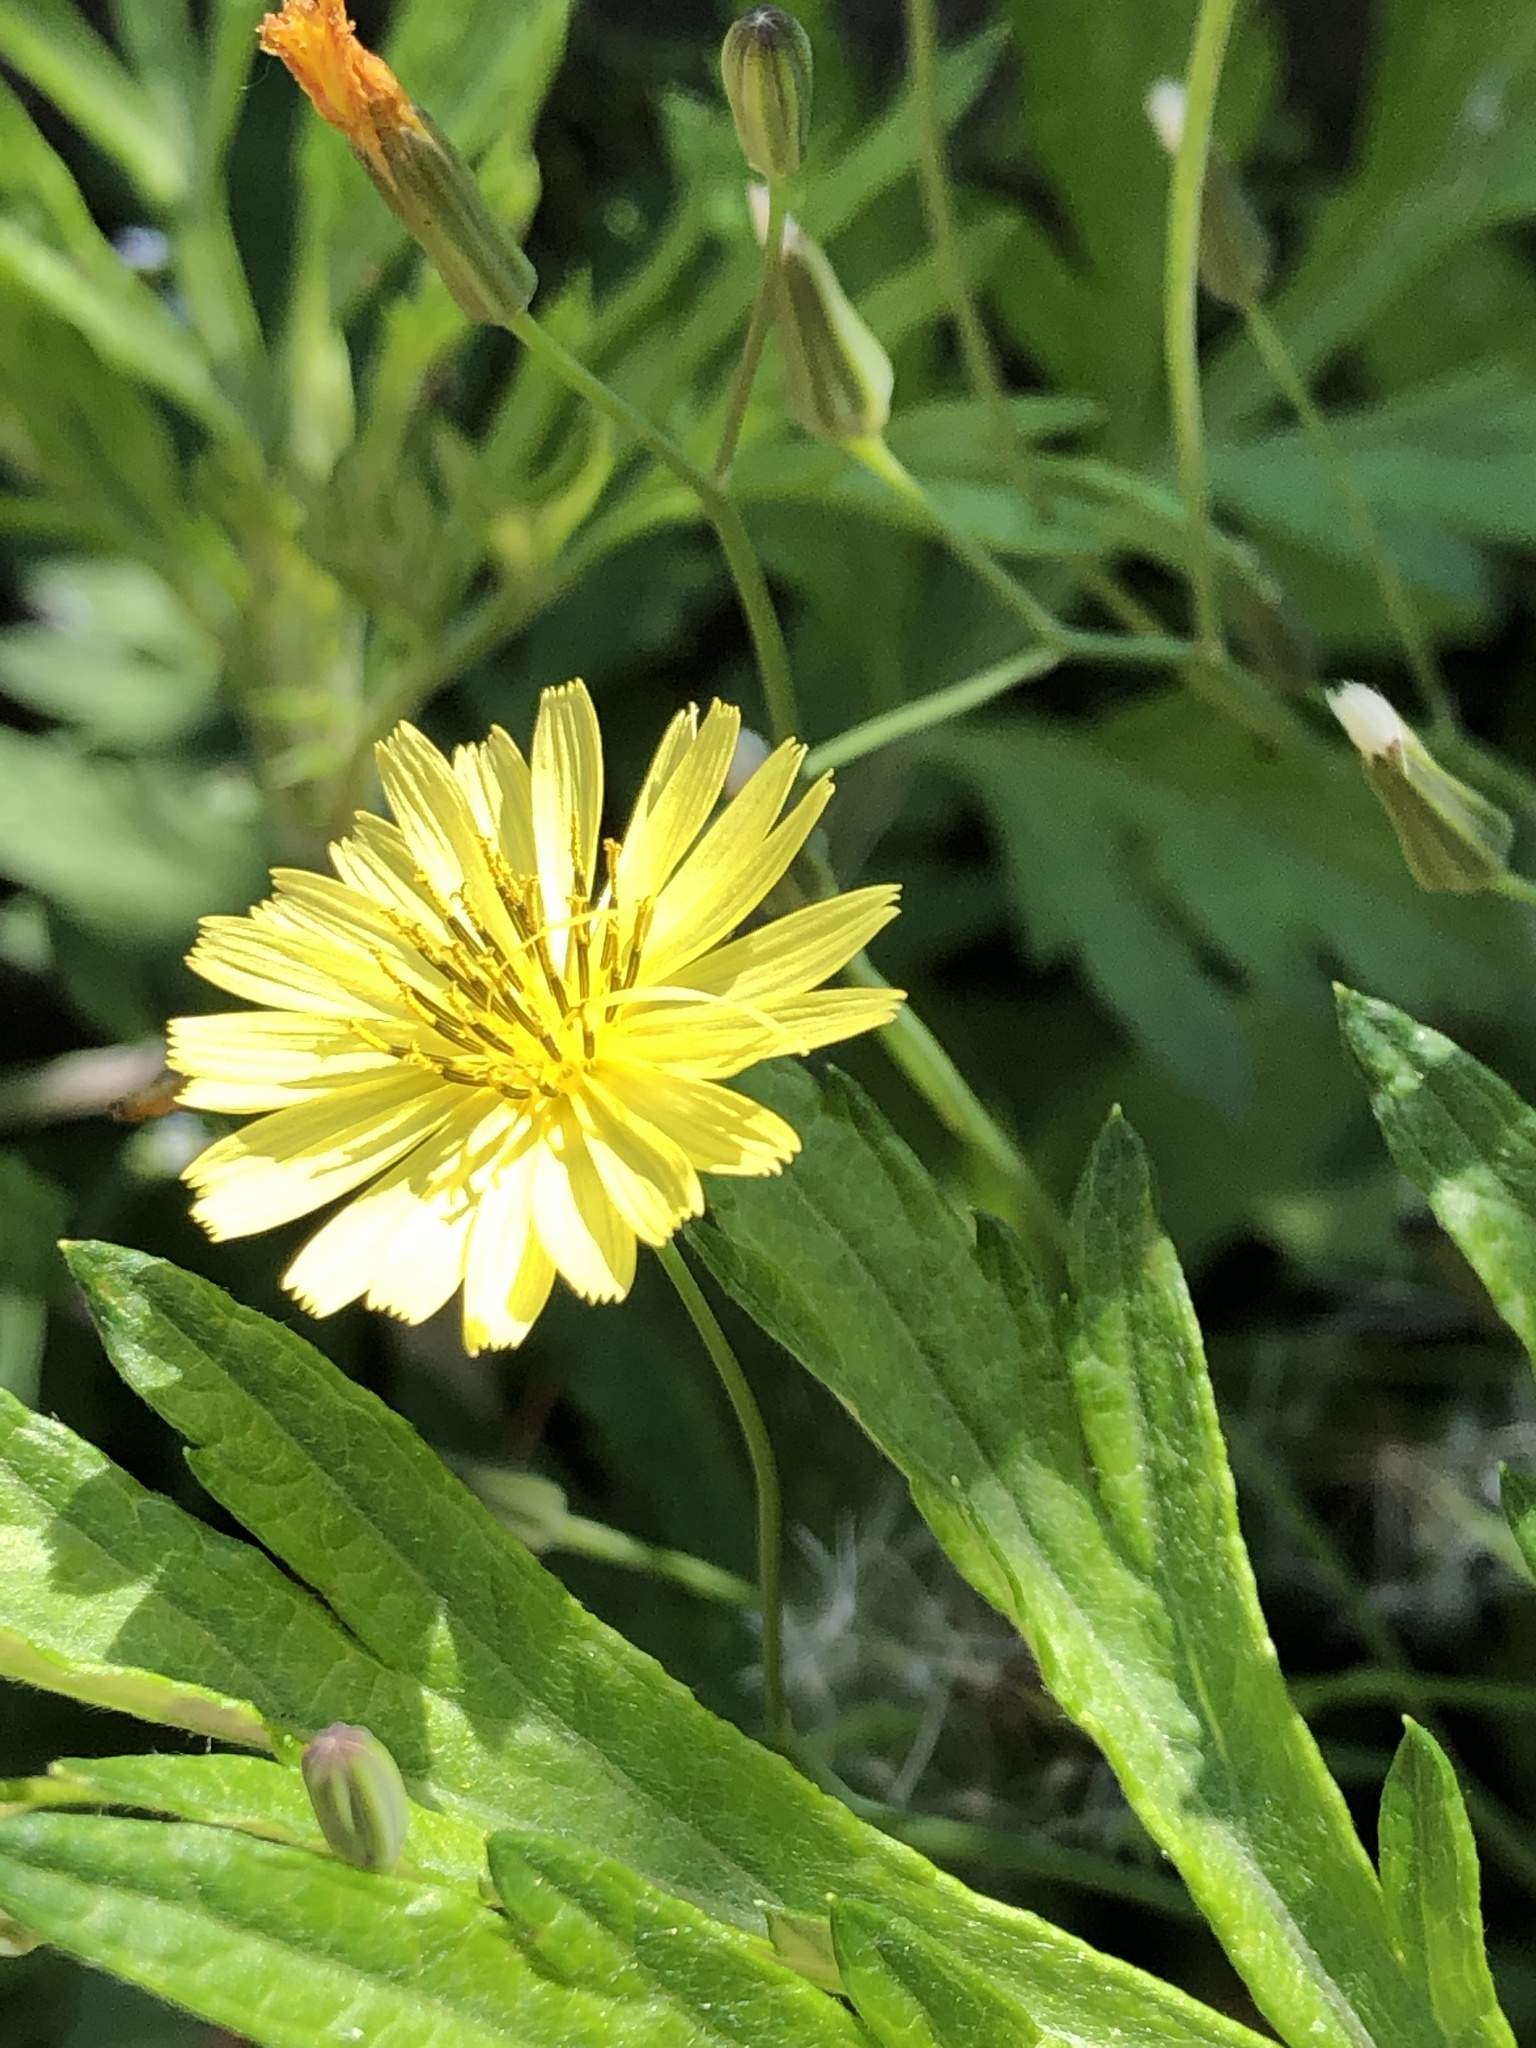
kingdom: Plantae
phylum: Tracheophyta
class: Magnoliopsida
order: Asterales
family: Asteraceae
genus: Ixeris
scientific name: Ixeris chinensis
